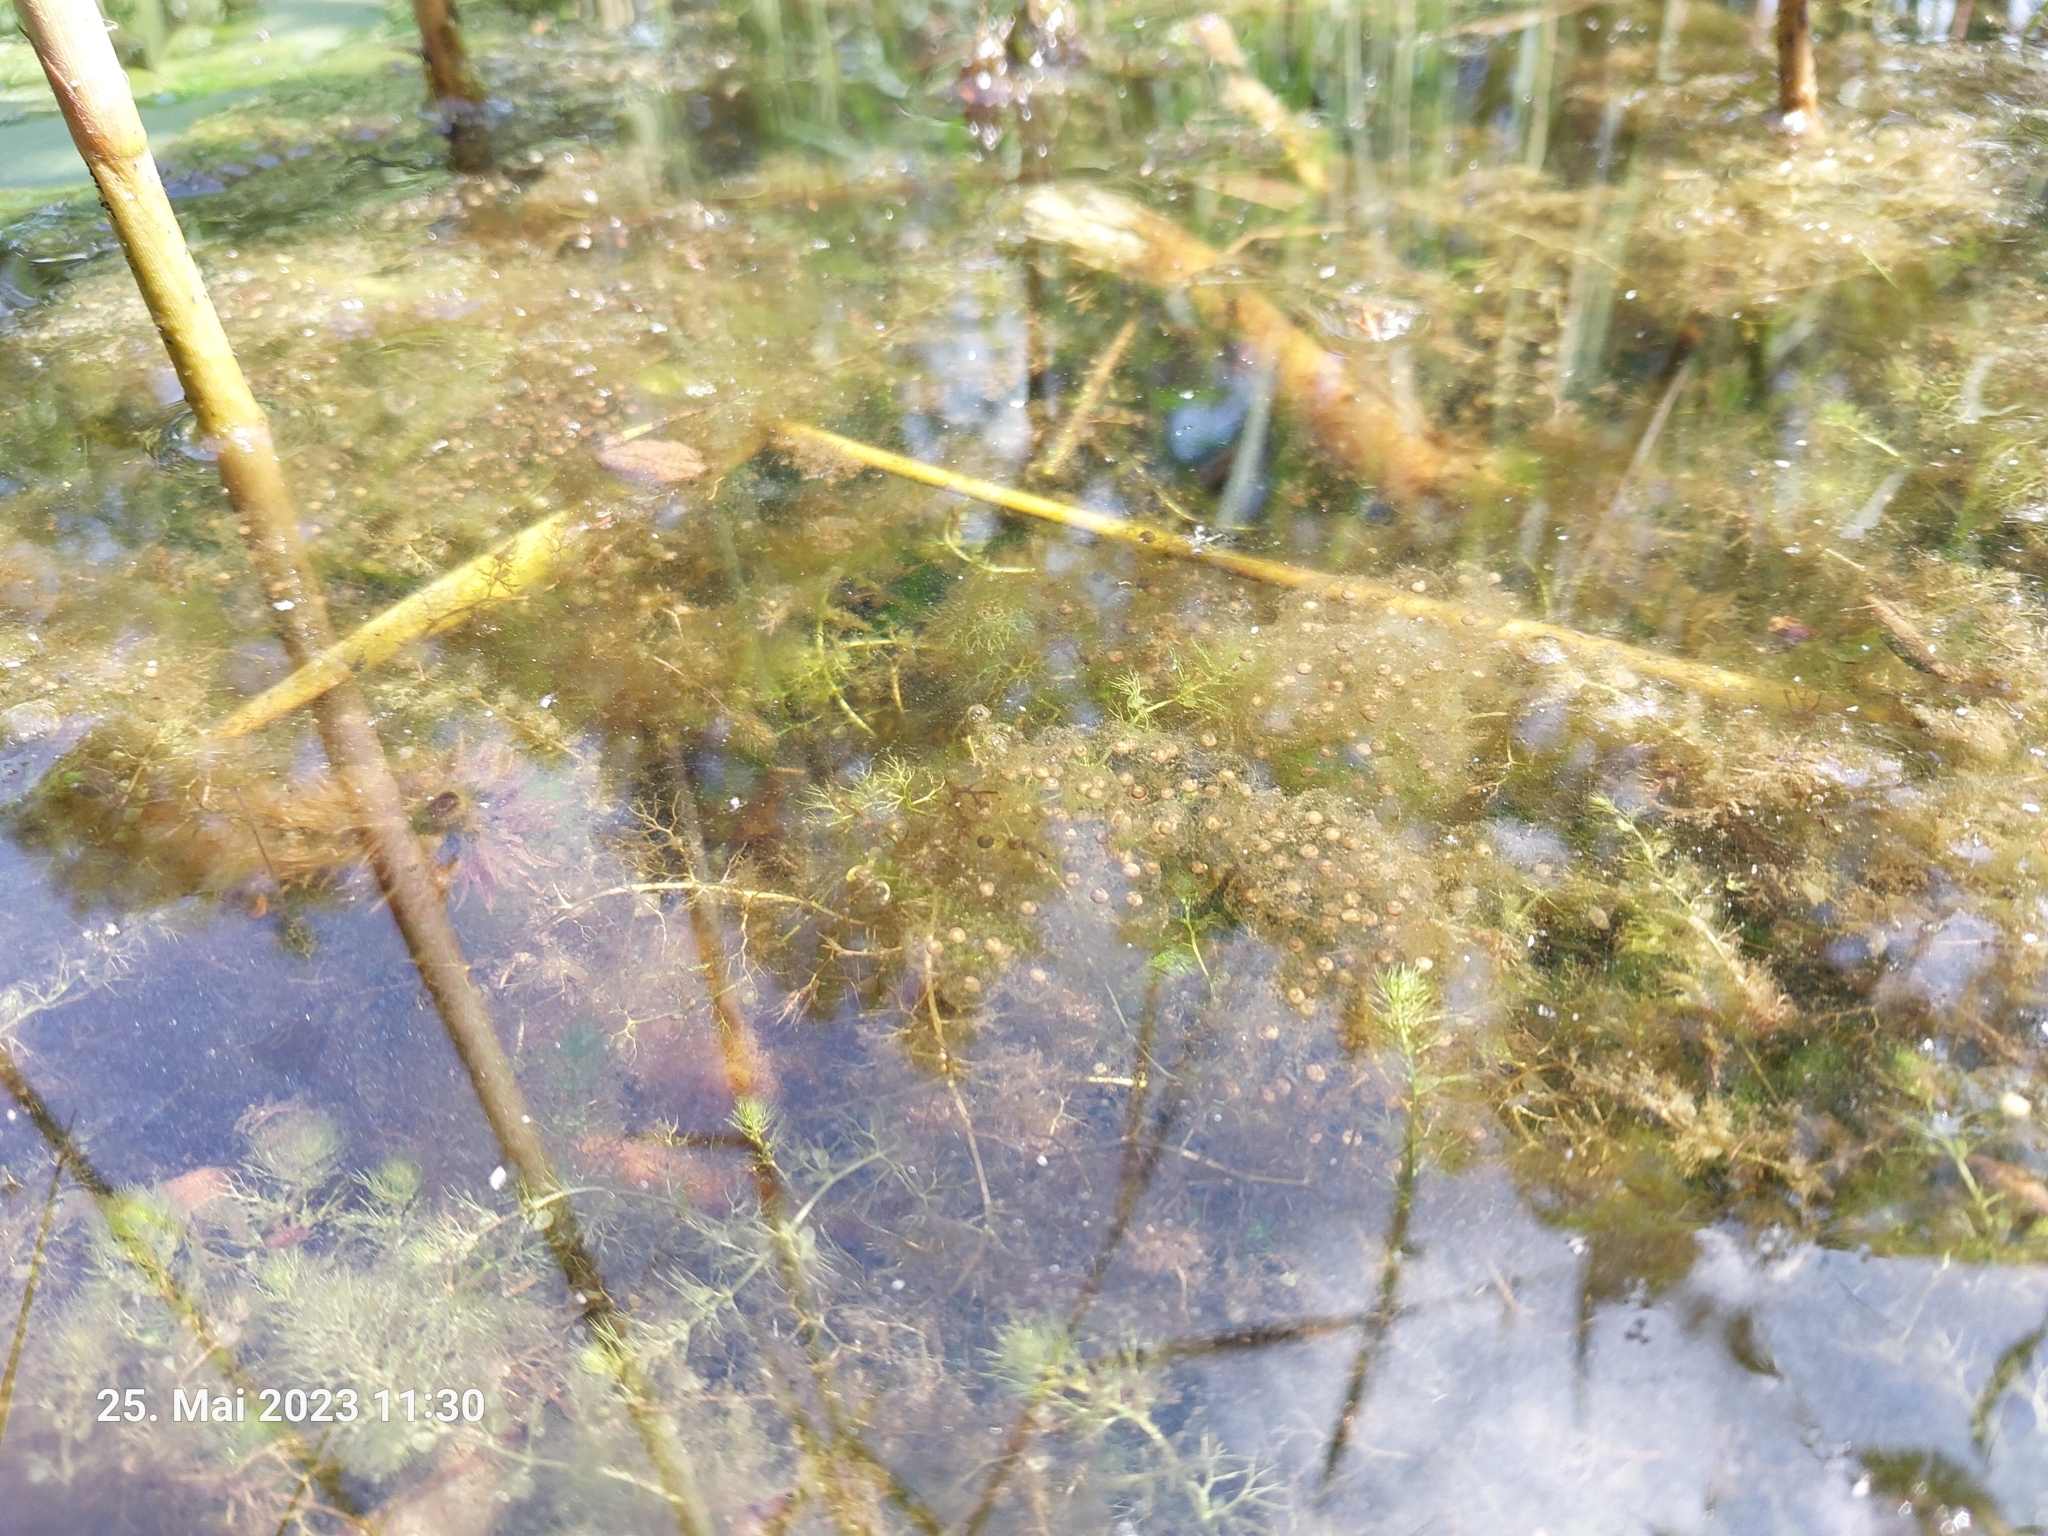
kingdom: Animalia
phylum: Chordata
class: Amphibia
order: Anura
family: Ranidae
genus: Pelophylax
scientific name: Pelophylax
